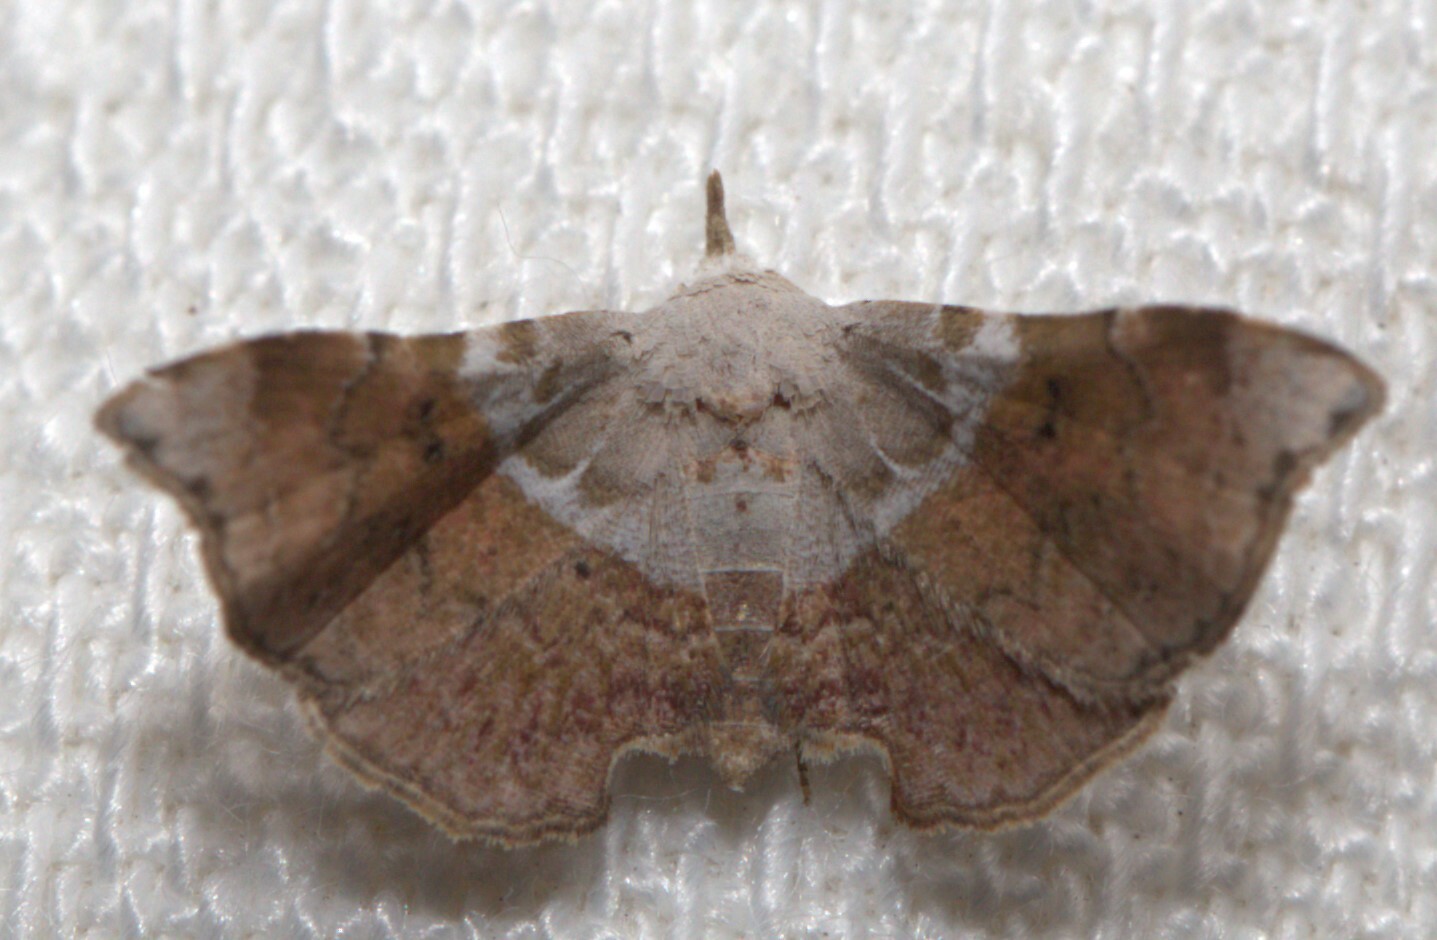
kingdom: Animalia
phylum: Arthropoda
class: Insecta
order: Lepidoptera
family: Erebidae
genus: Esthlodora
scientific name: Esthlodora versicolor
